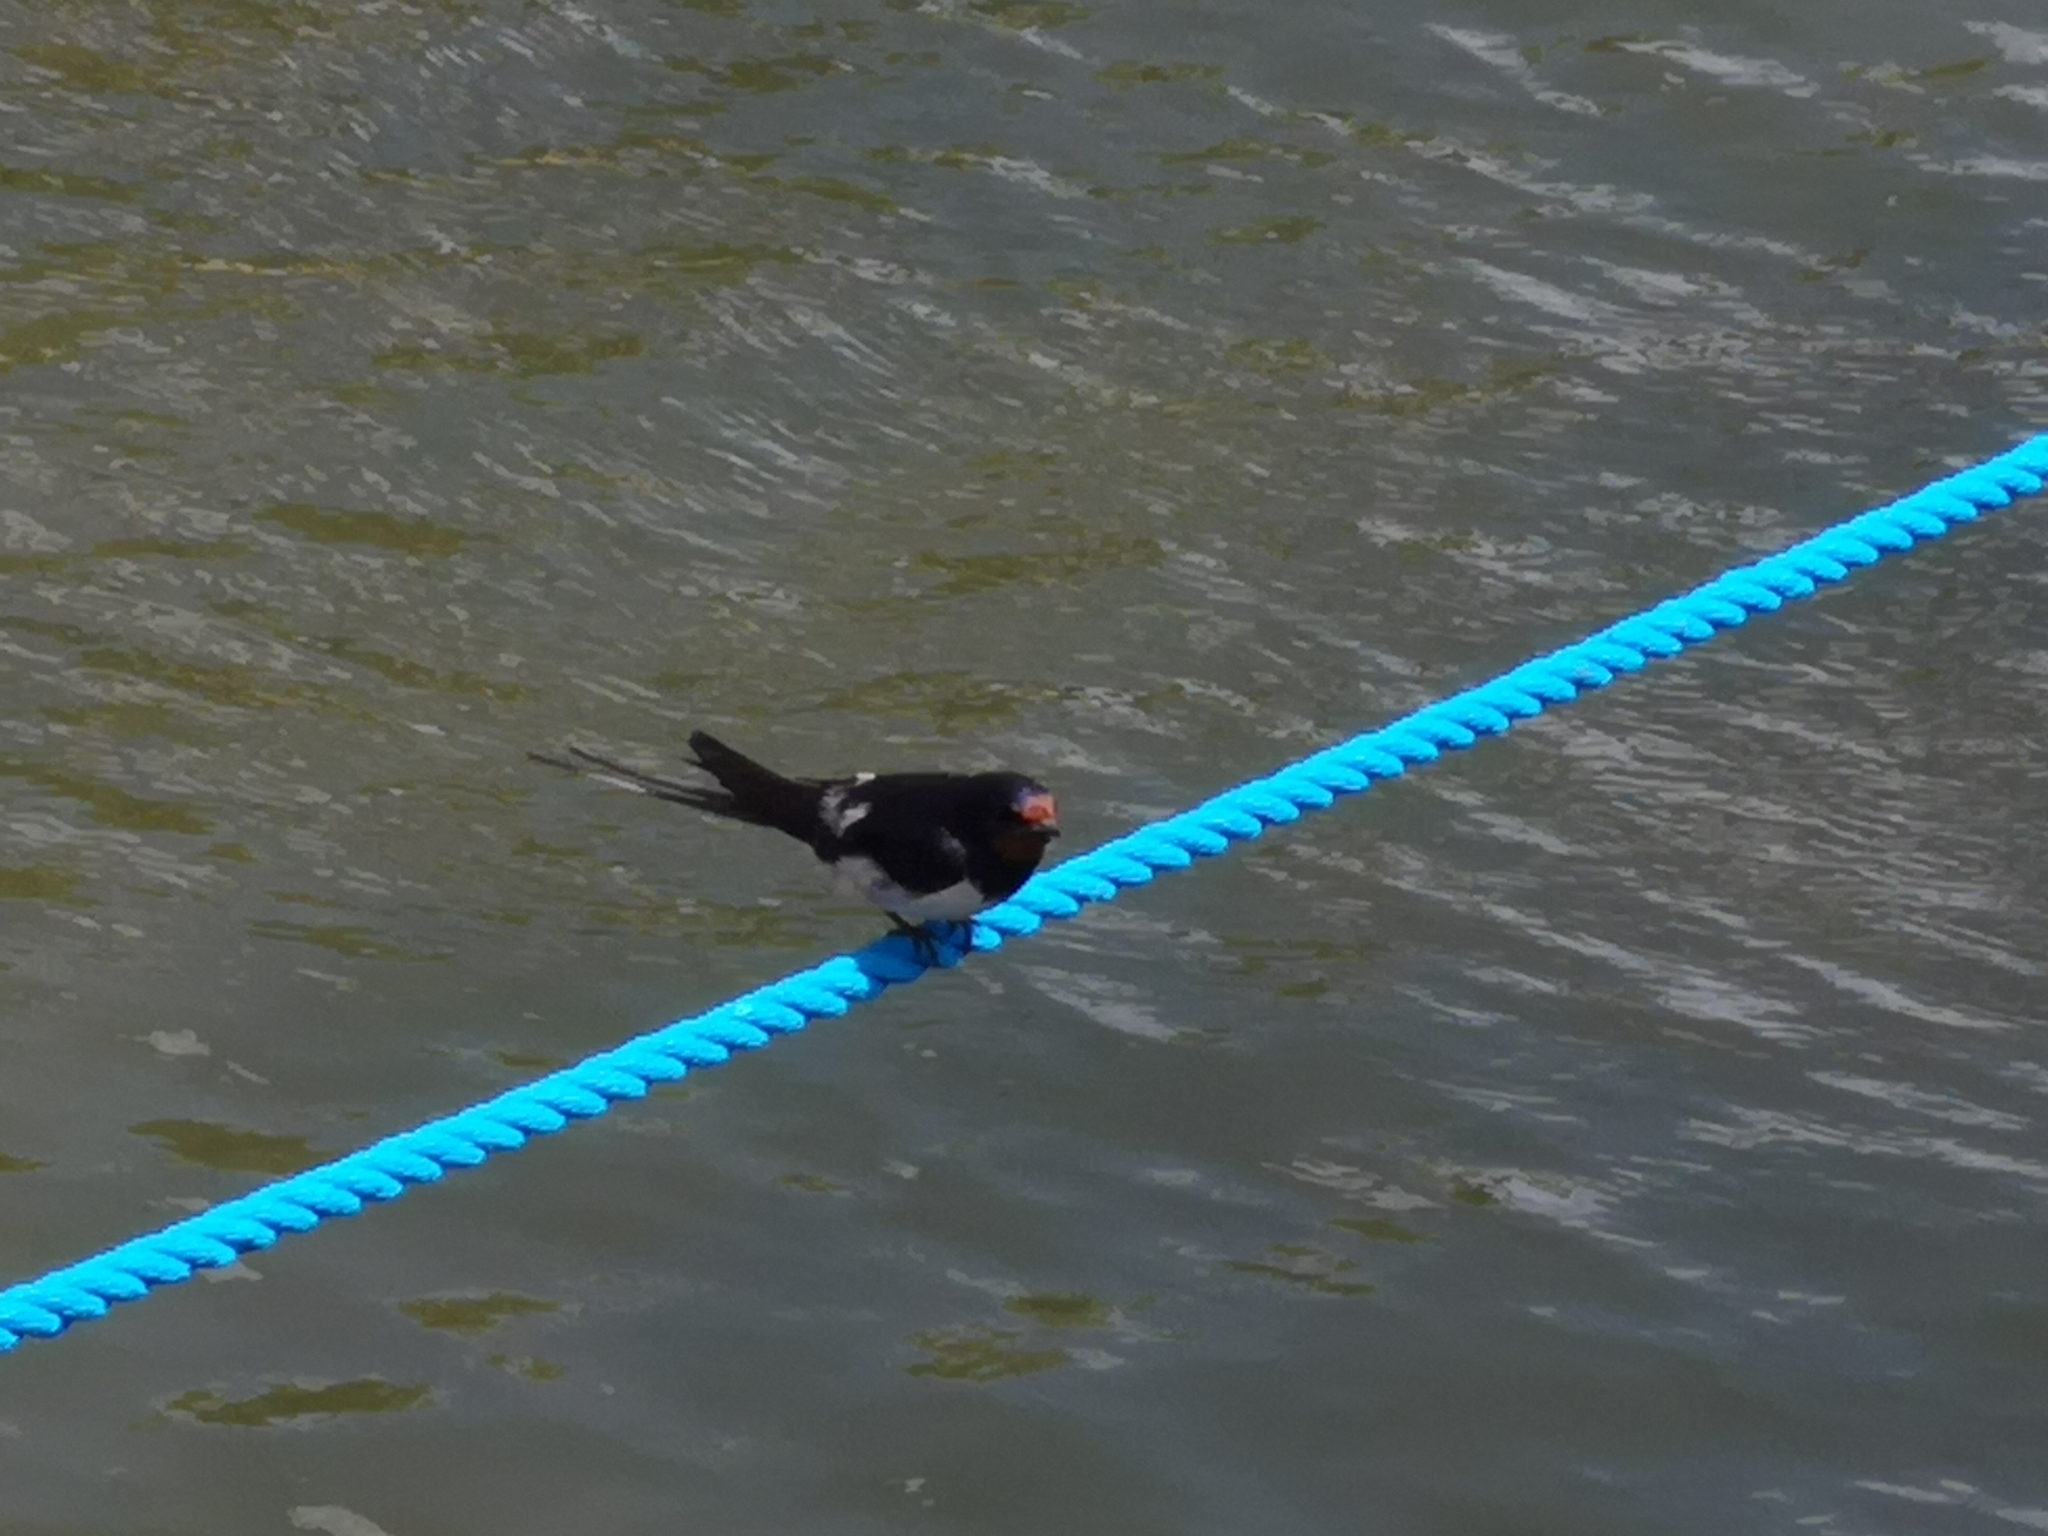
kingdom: Animalia
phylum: Chordata
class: Aves
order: Passeriformes
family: Hirundinidae
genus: Hirundo
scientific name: Hirundo rustica
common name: Barn swallow
